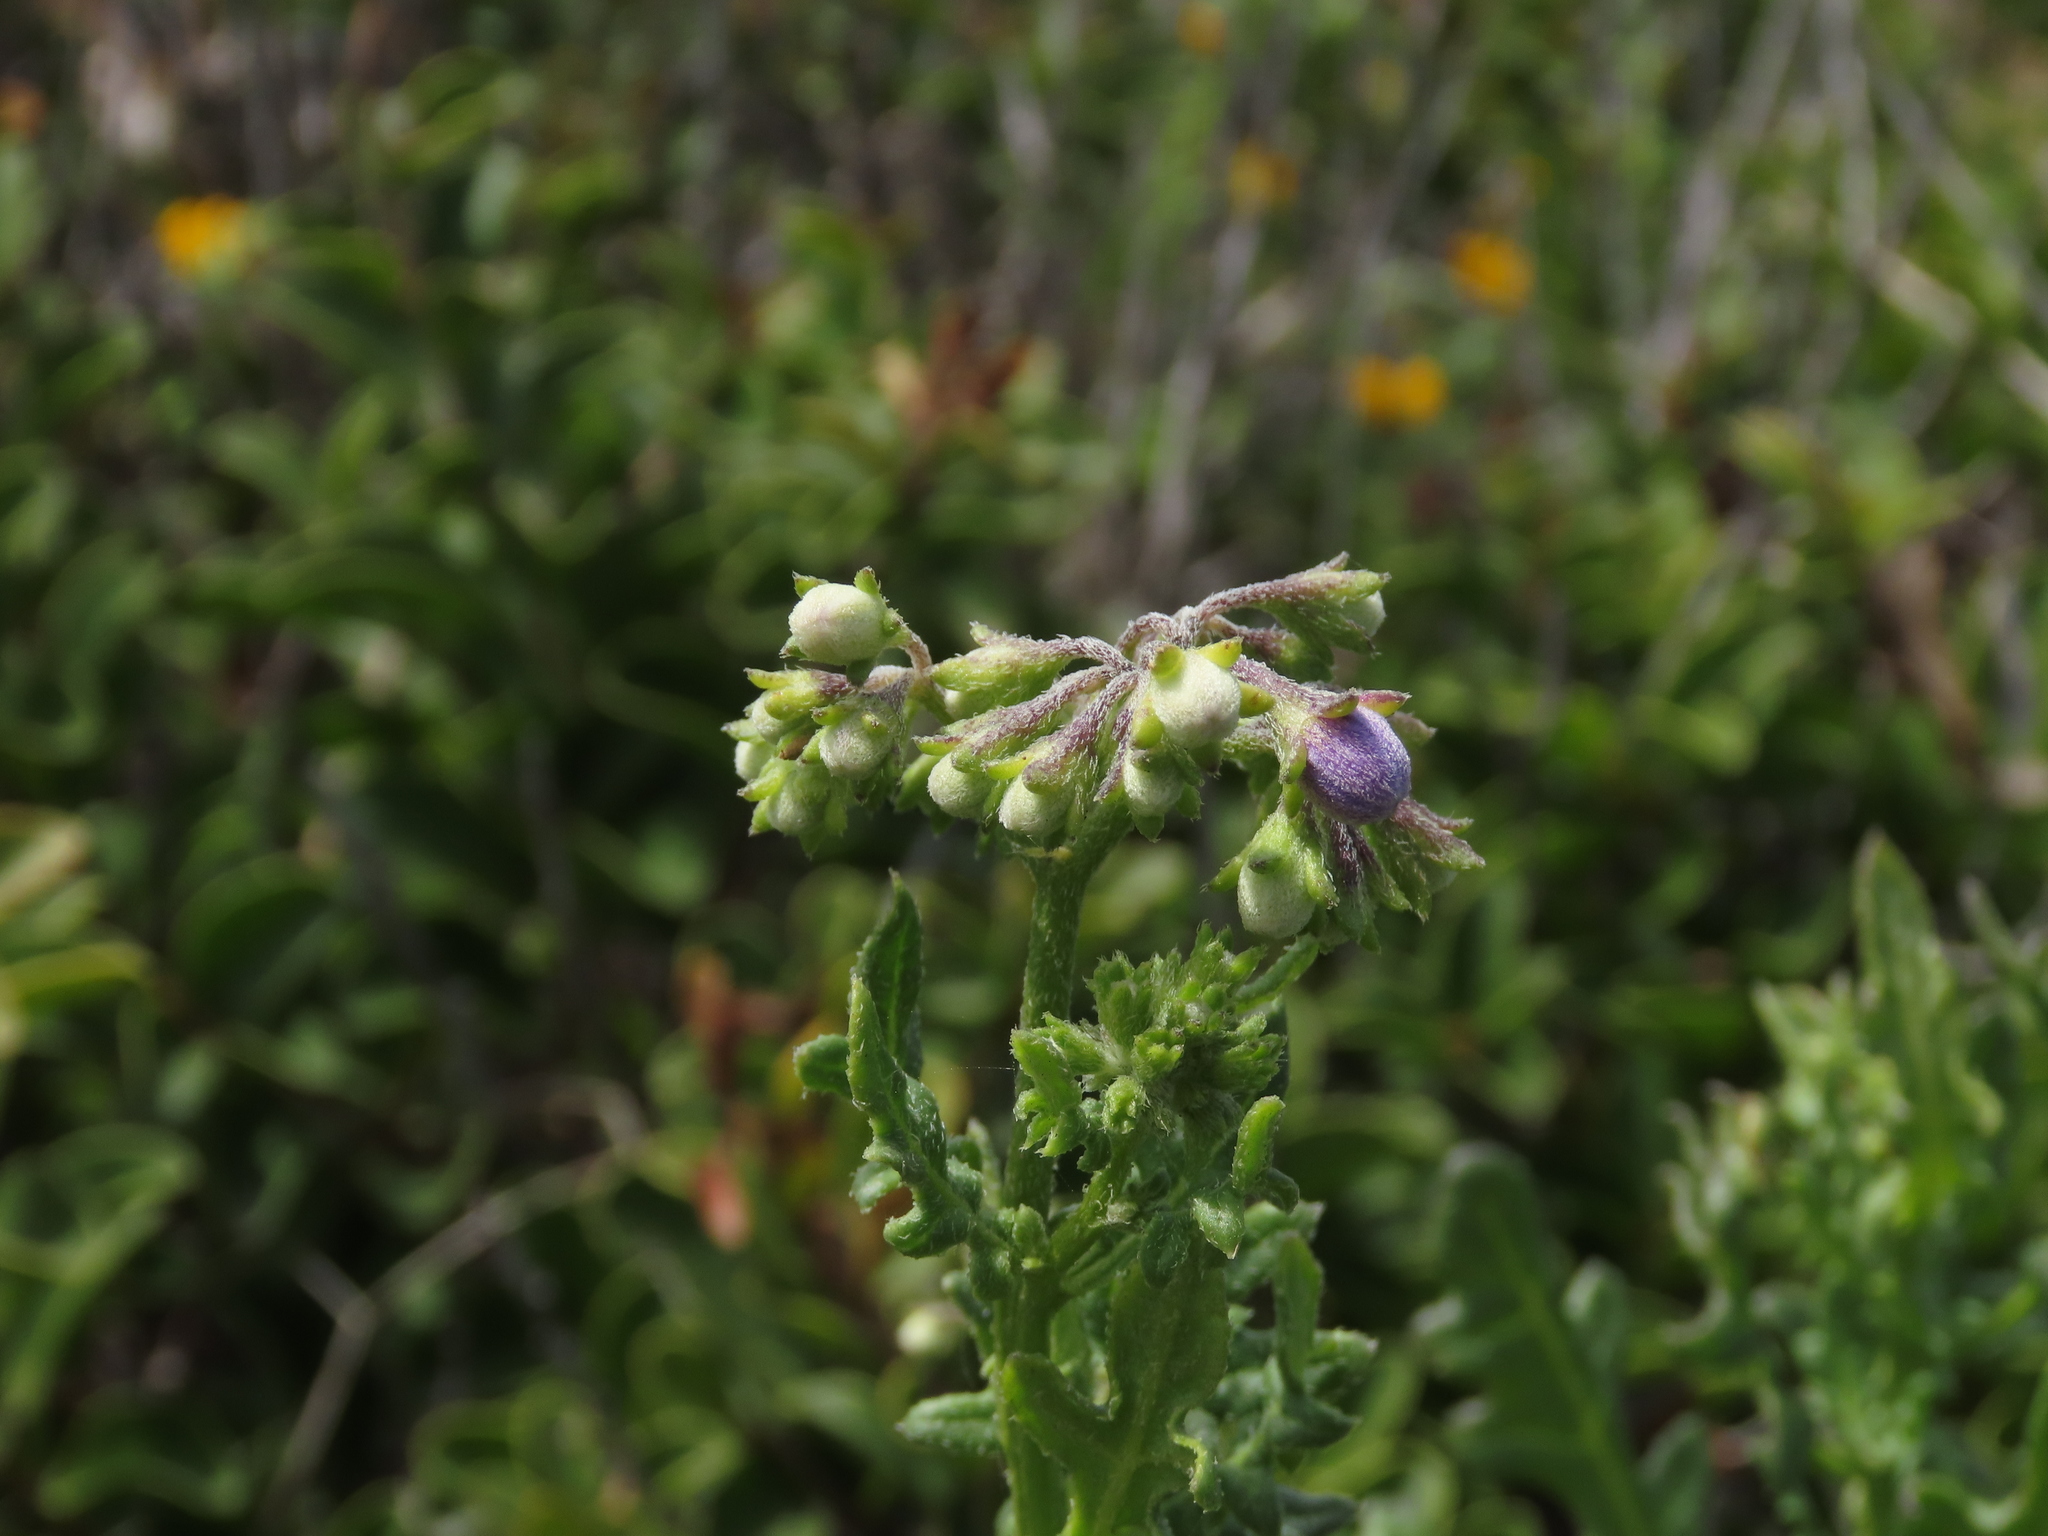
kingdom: Plantae
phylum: Tracheophyta
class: Magnoliopsida
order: Solanales
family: Solanaceae
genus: Solanum
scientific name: Solanum pinnatum
